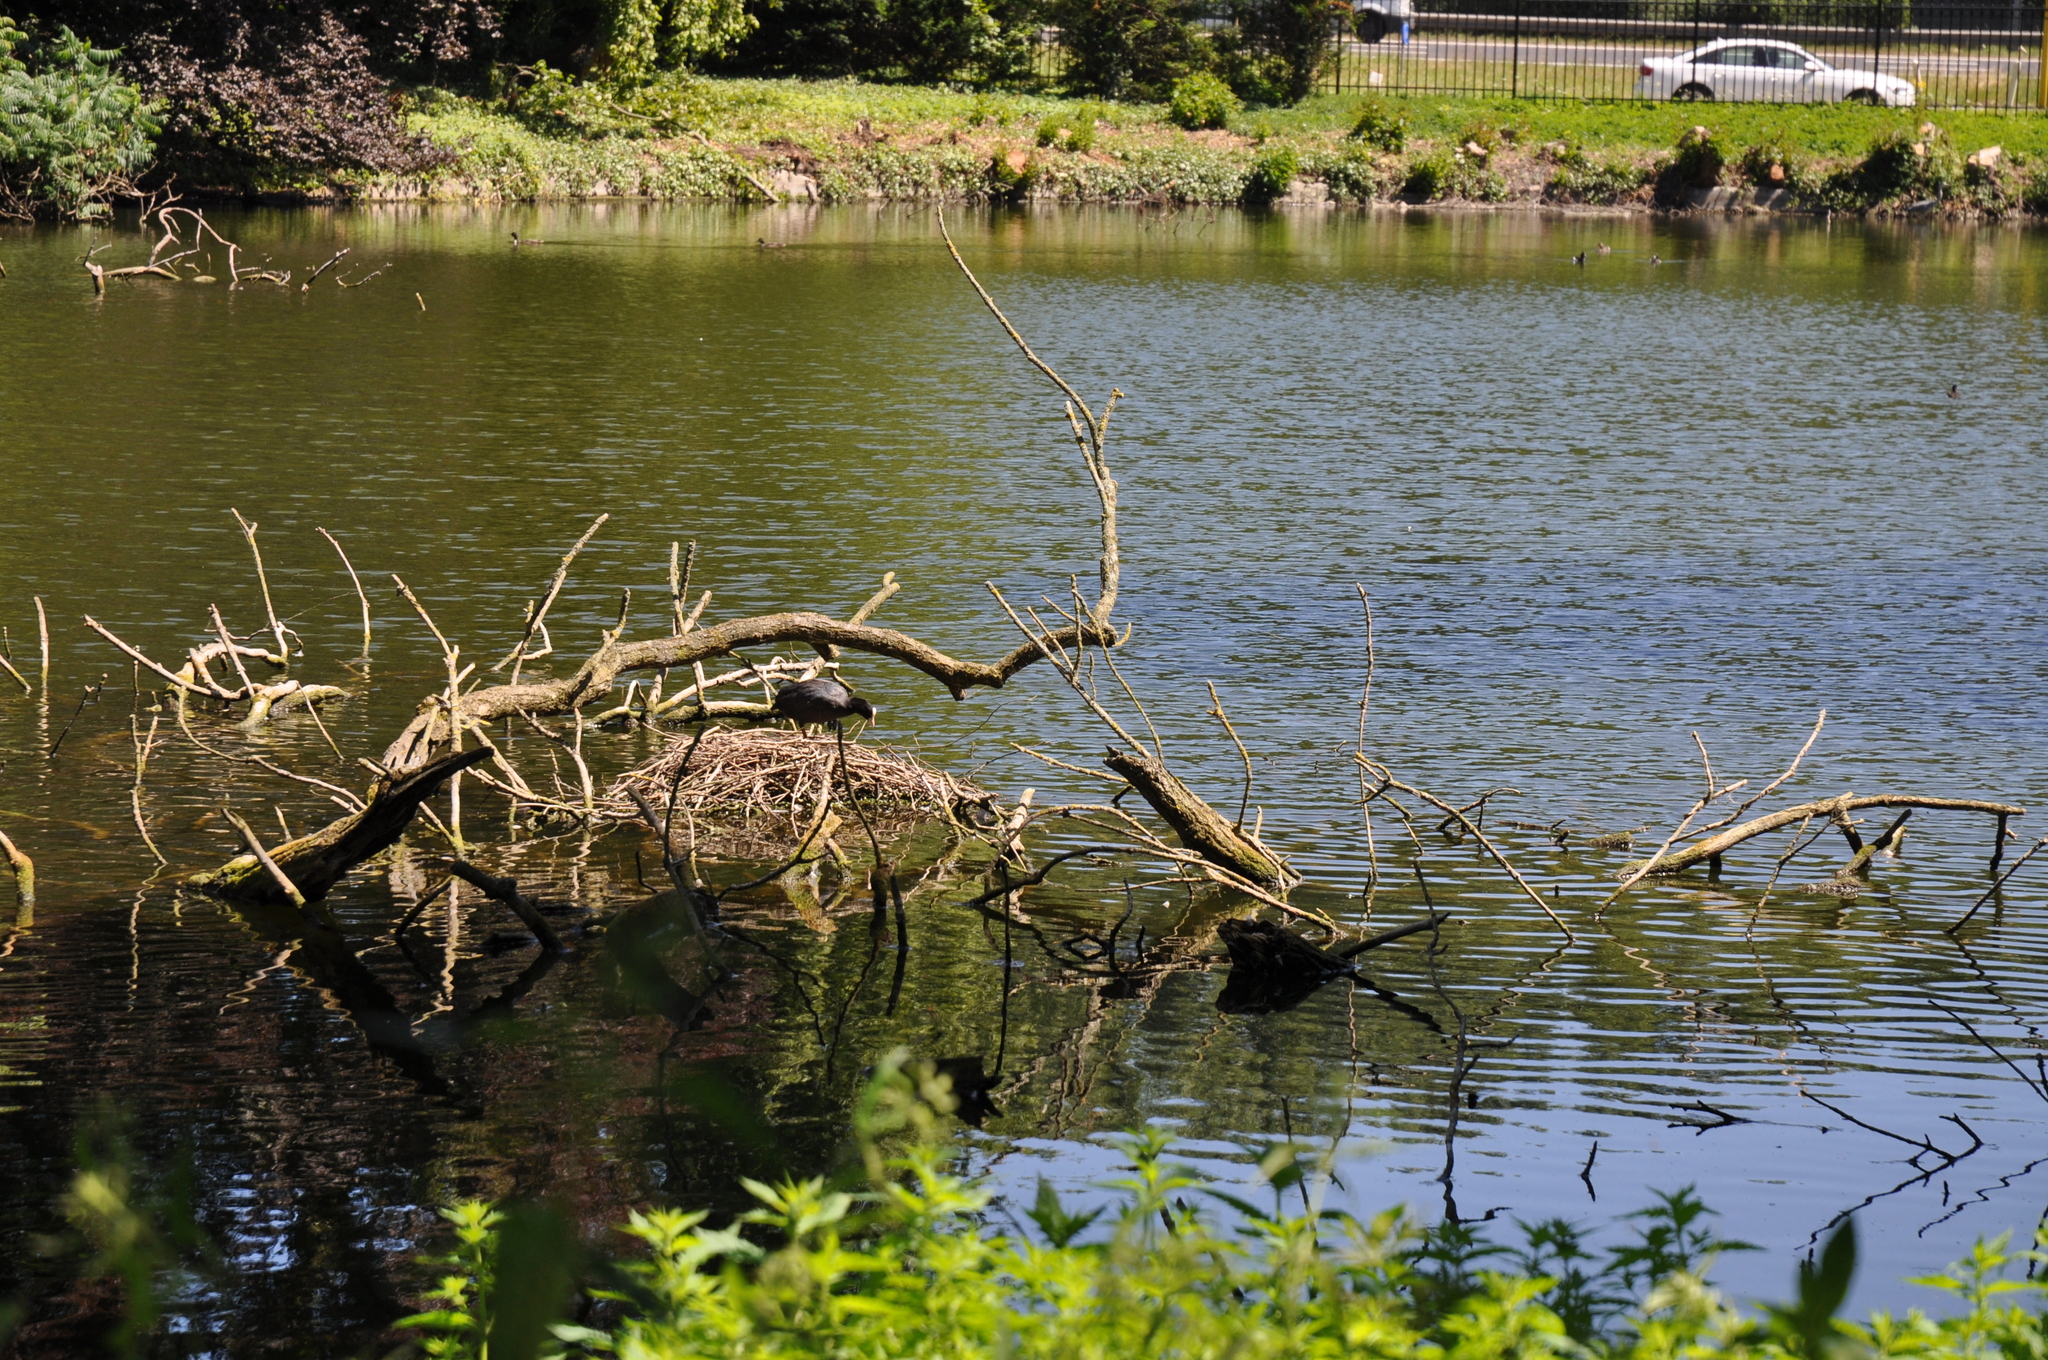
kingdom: Animalia
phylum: Chordata
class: Aves
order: Gruiformes
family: Rallidae
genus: Fulica
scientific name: Fulica atra
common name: Eurasian coot
